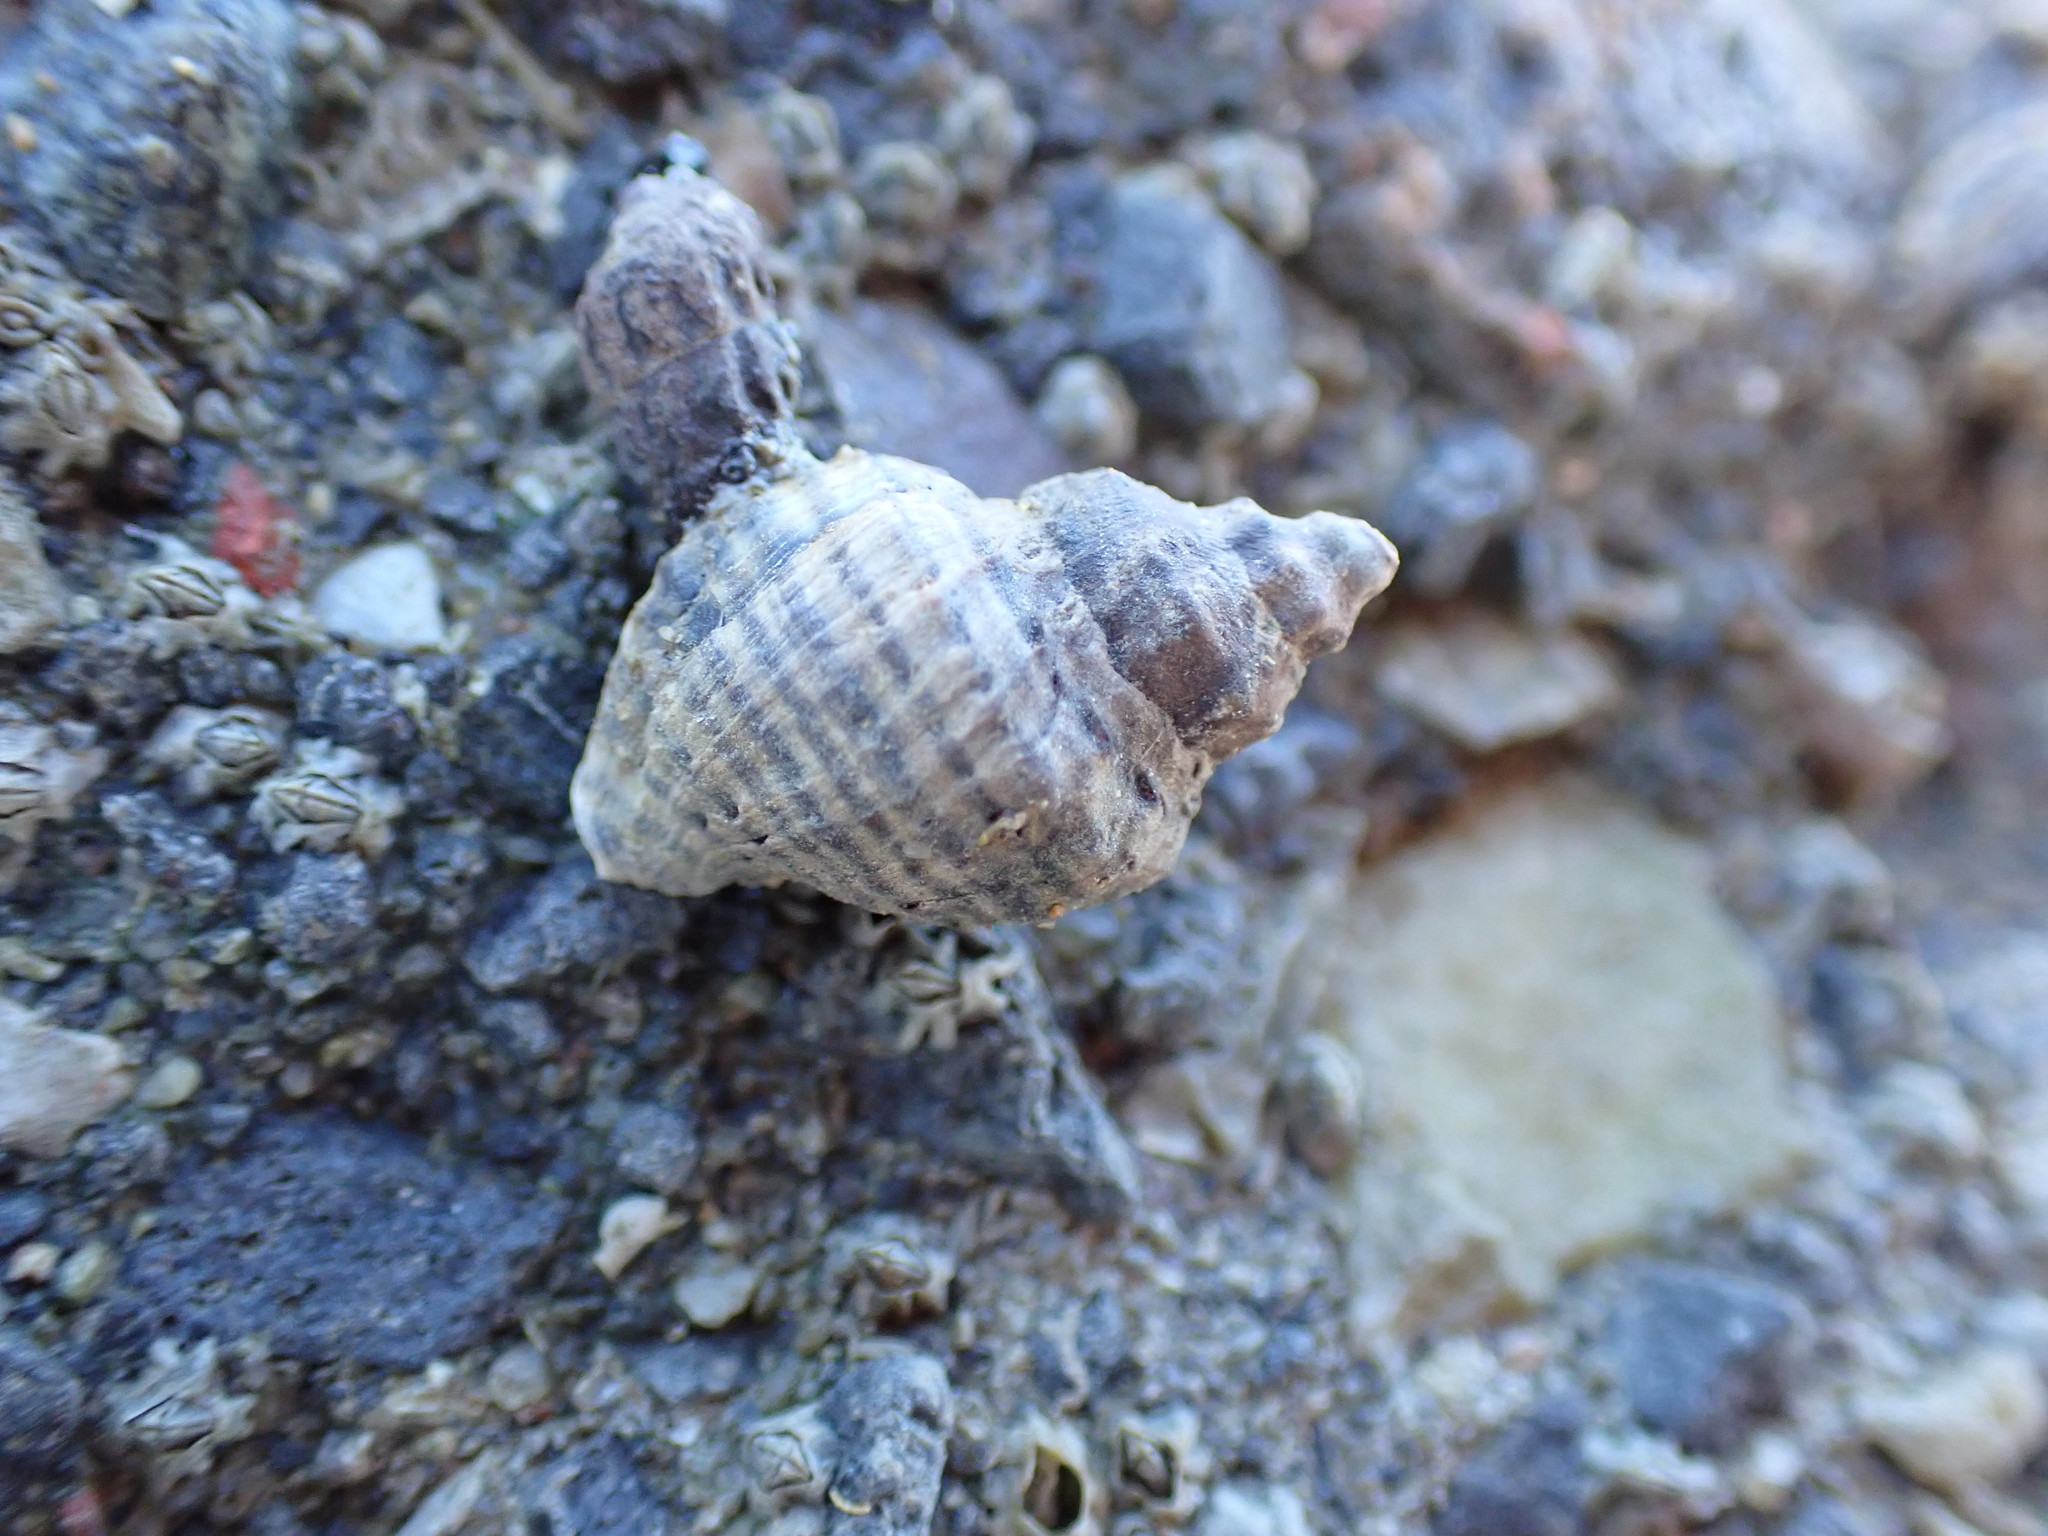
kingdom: Animalia
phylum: Mollusca
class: Gastropoda
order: Neogastropoda
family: Muricidae
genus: Haustrum
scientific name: Haustrum albomarginatum
